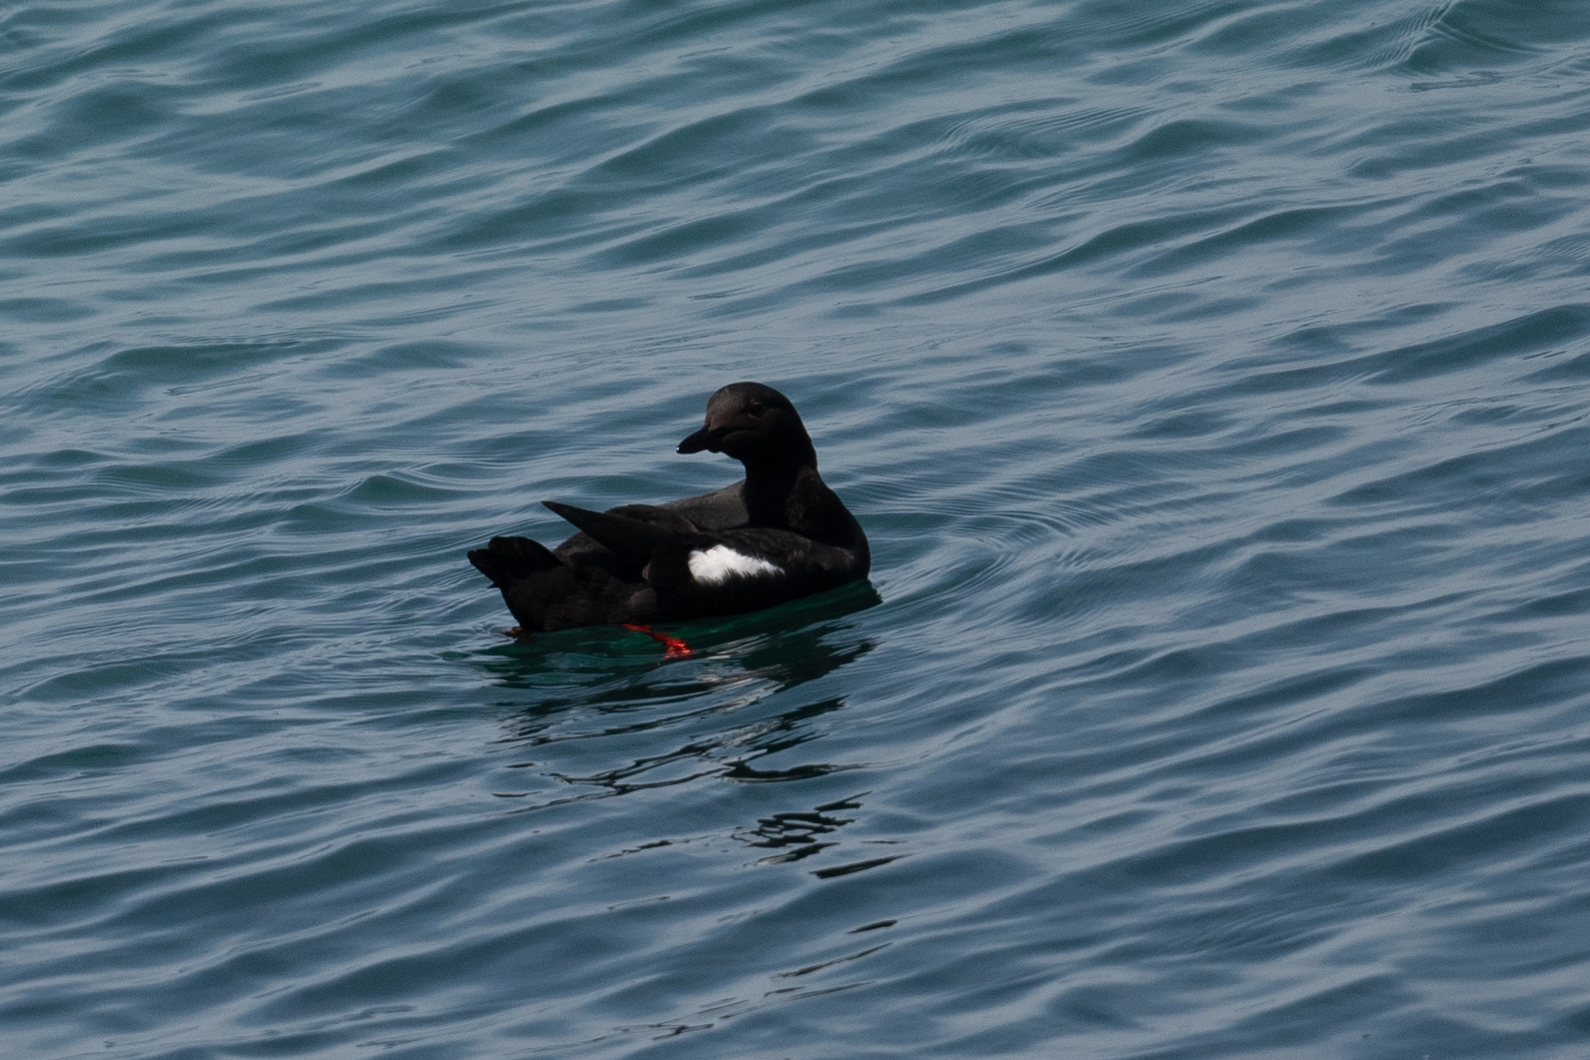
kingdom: Animalia
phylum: Chordata
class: Aves
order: Charadriiformes
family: Alcidae
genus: Cepphus
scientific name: Cepphus columba
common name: Pigeon guillemot
